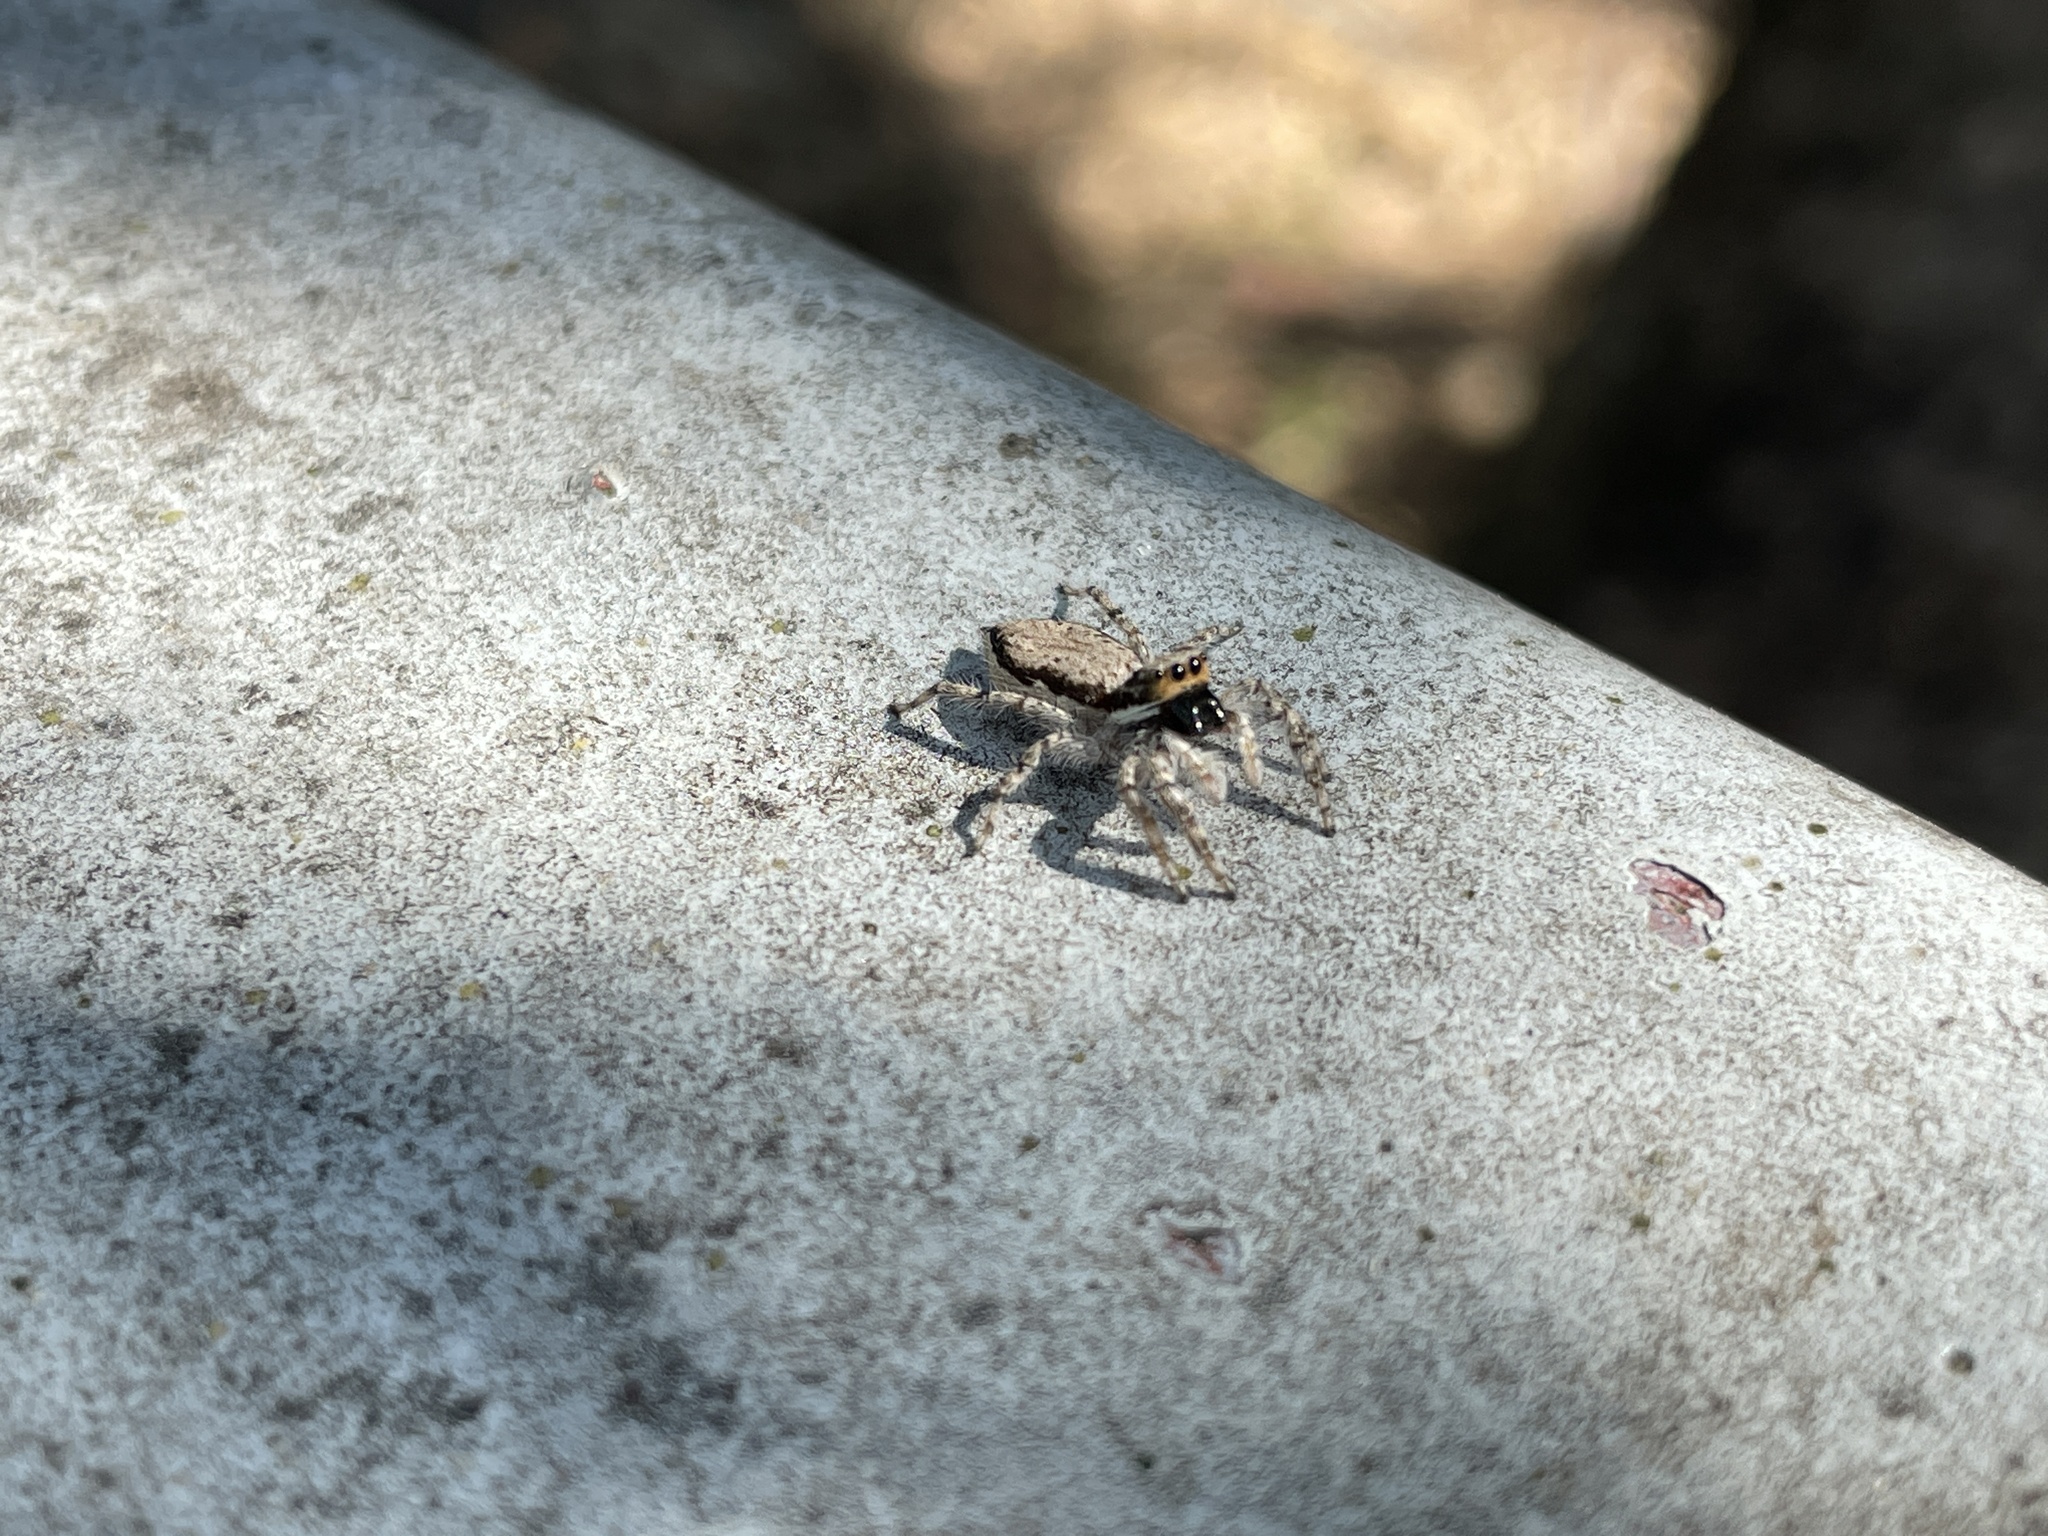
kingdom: Animalia
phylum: Arthropoda
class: Arachnida
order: Araneae
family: Salticidae
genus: Menemerus
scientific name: Menemerus bivittatus
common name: Gray wall jumper
